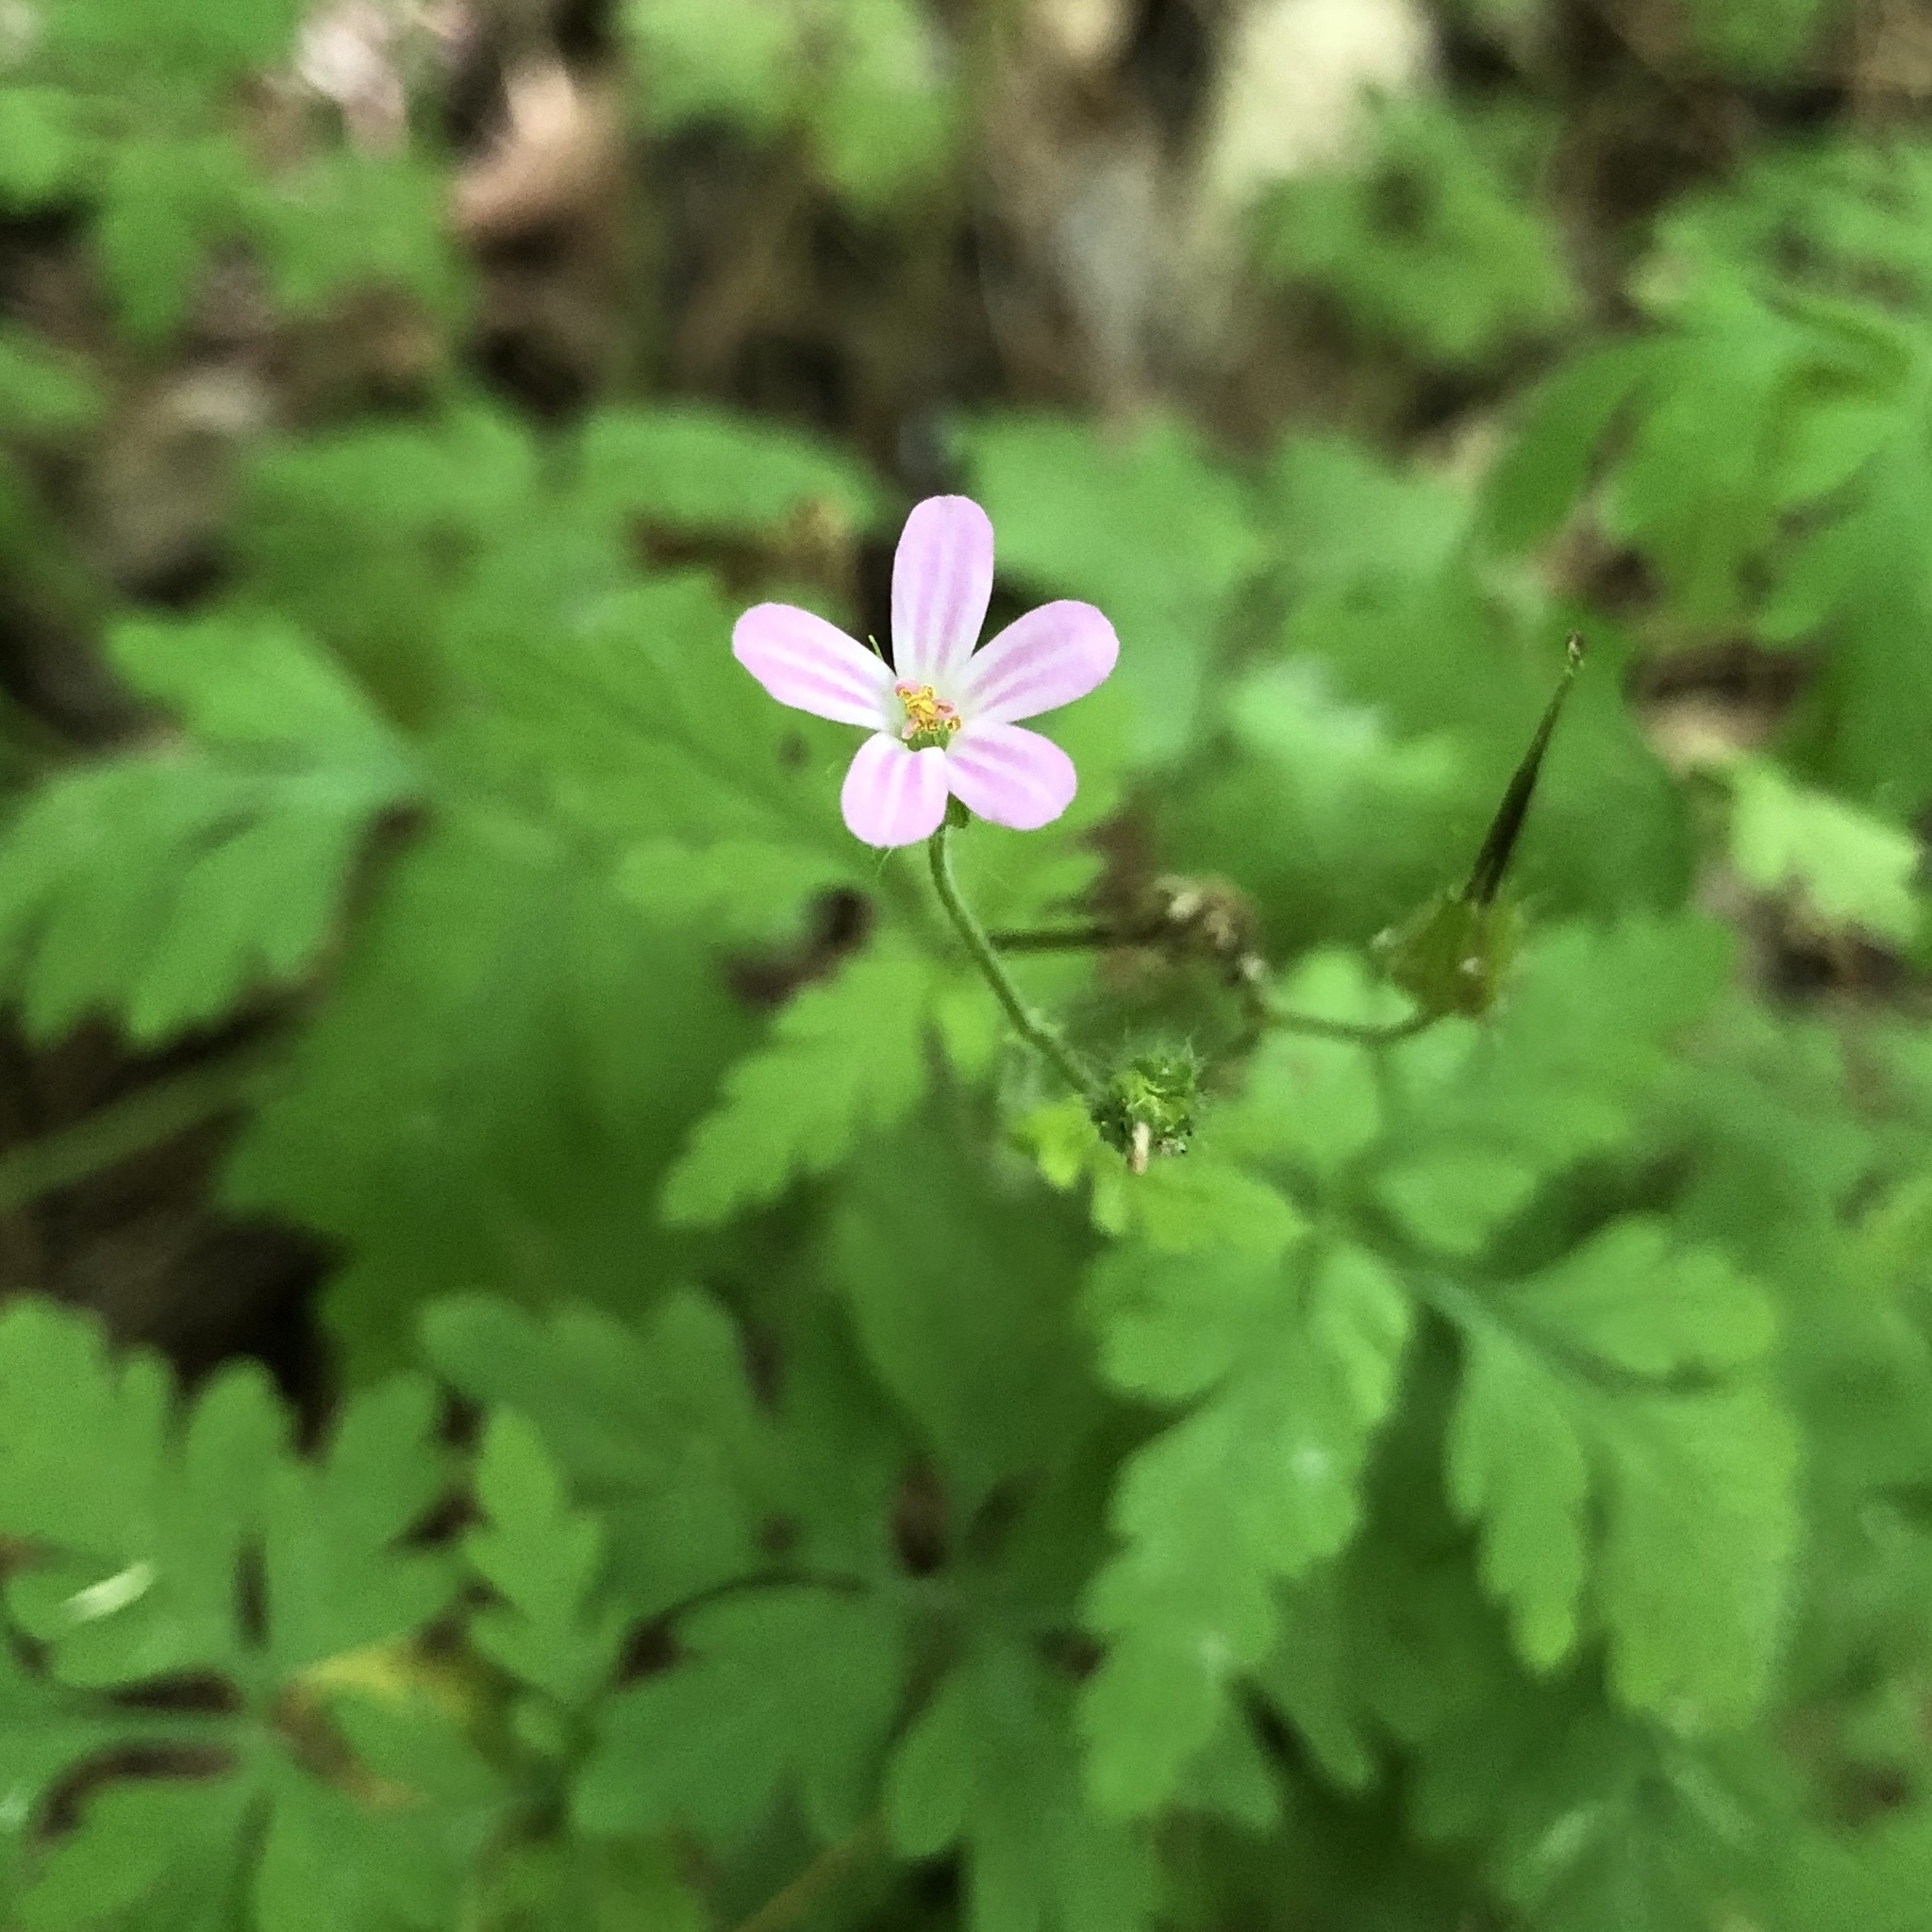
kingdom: Plantae
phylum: Tracheophyta
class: Magnoliopsida
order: Geraniales
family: Geraniaceae
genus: Geranium
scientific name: Geranium robertianum
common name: Herb-robert
